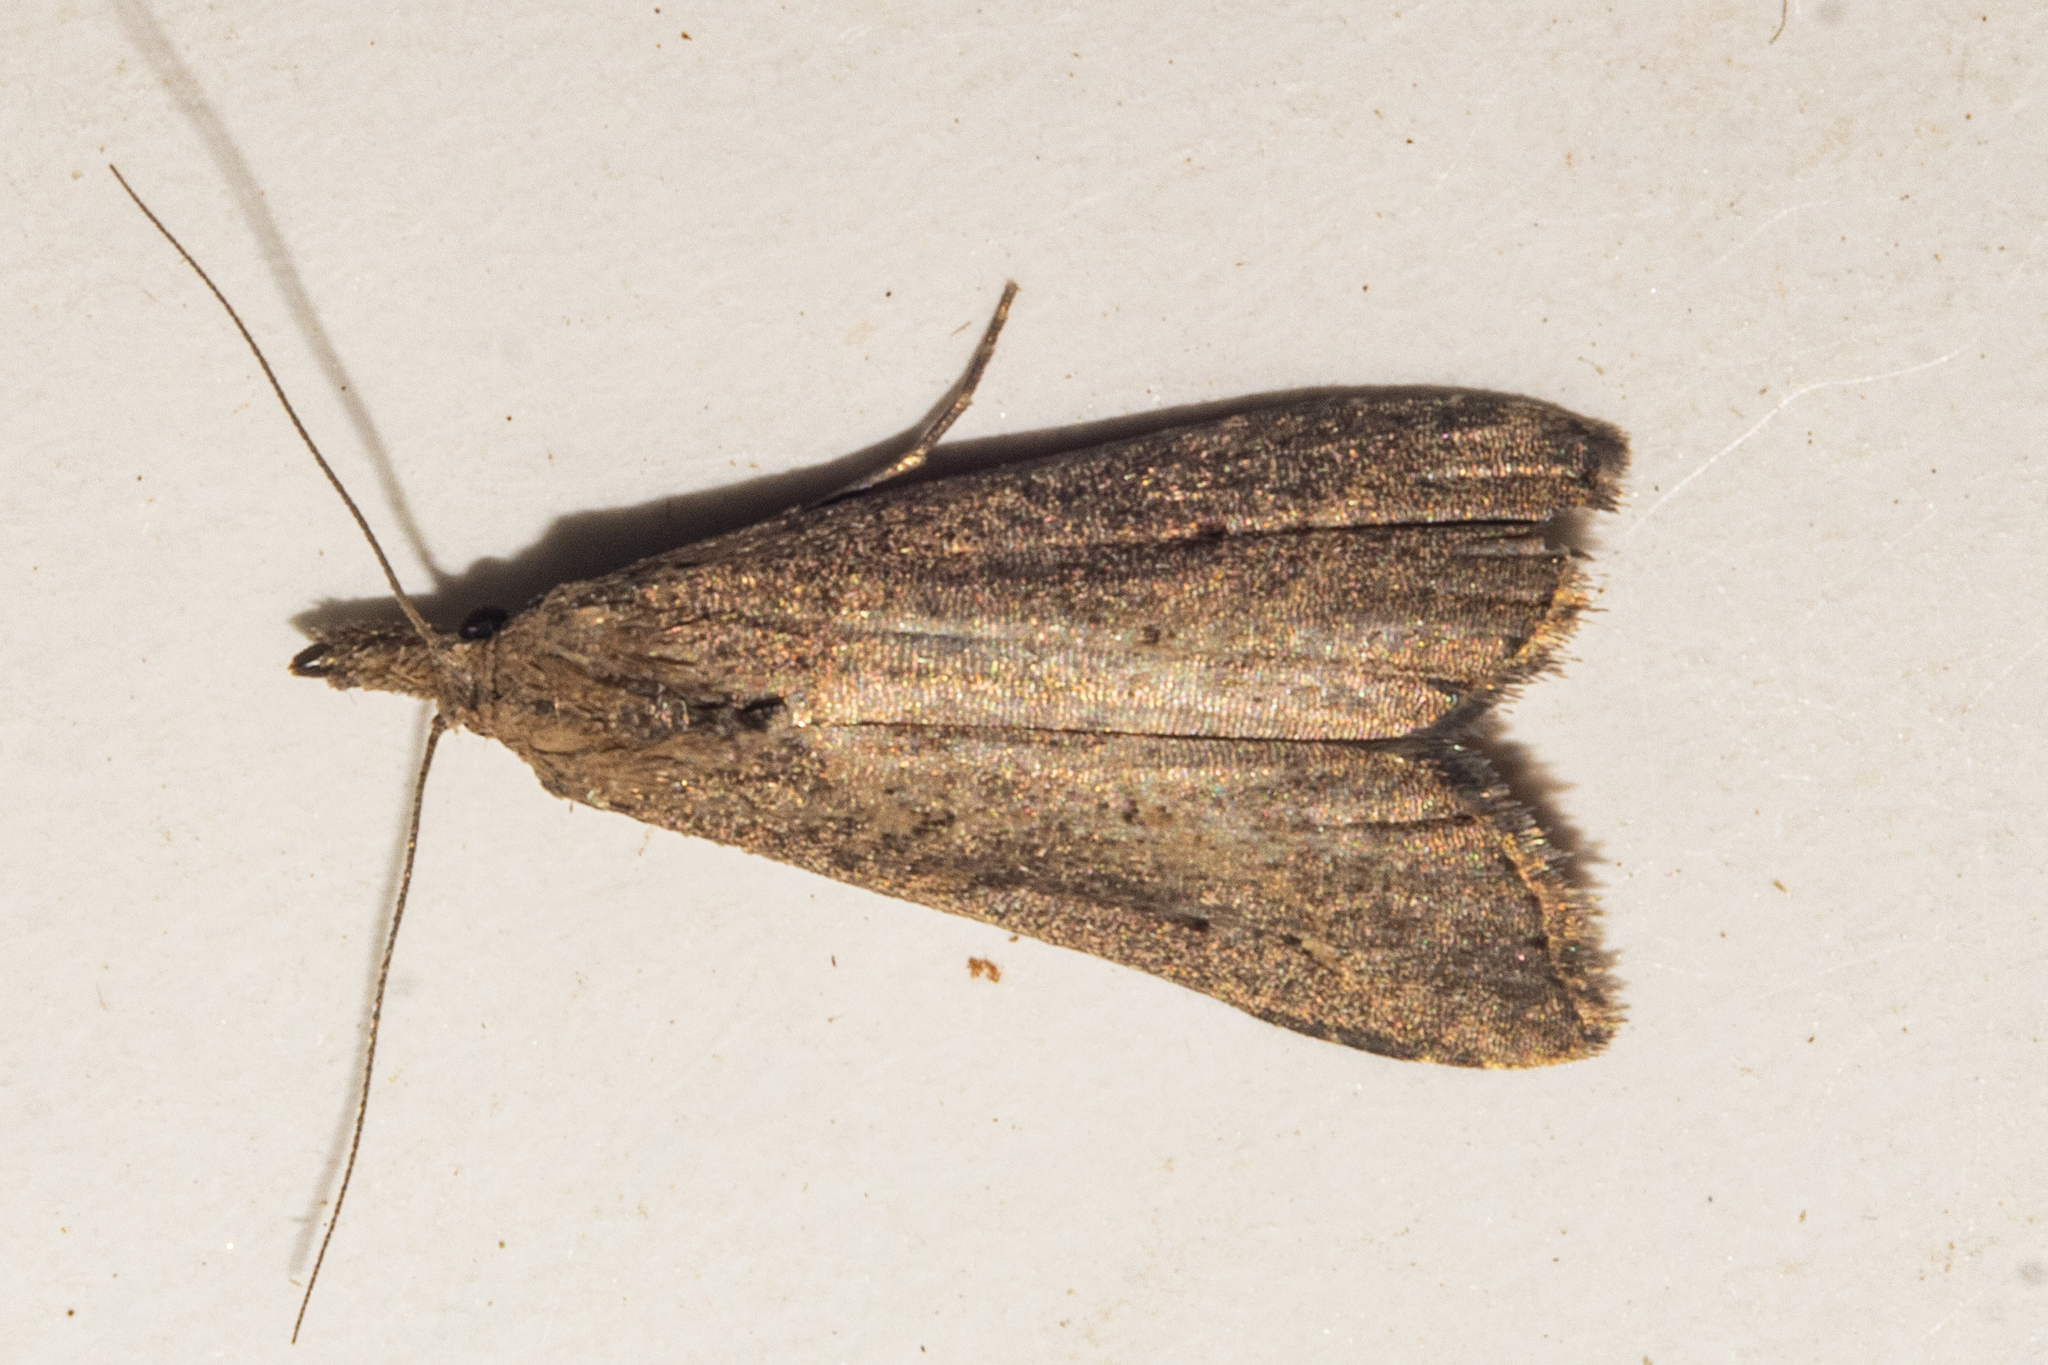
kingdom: Animalia
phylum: Arthropoda
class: Insecta
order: Lepidoptera
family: Erebidae
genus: Schrankia
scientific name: Schrankia costaestrigalis
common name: Pinion-streaked snout
